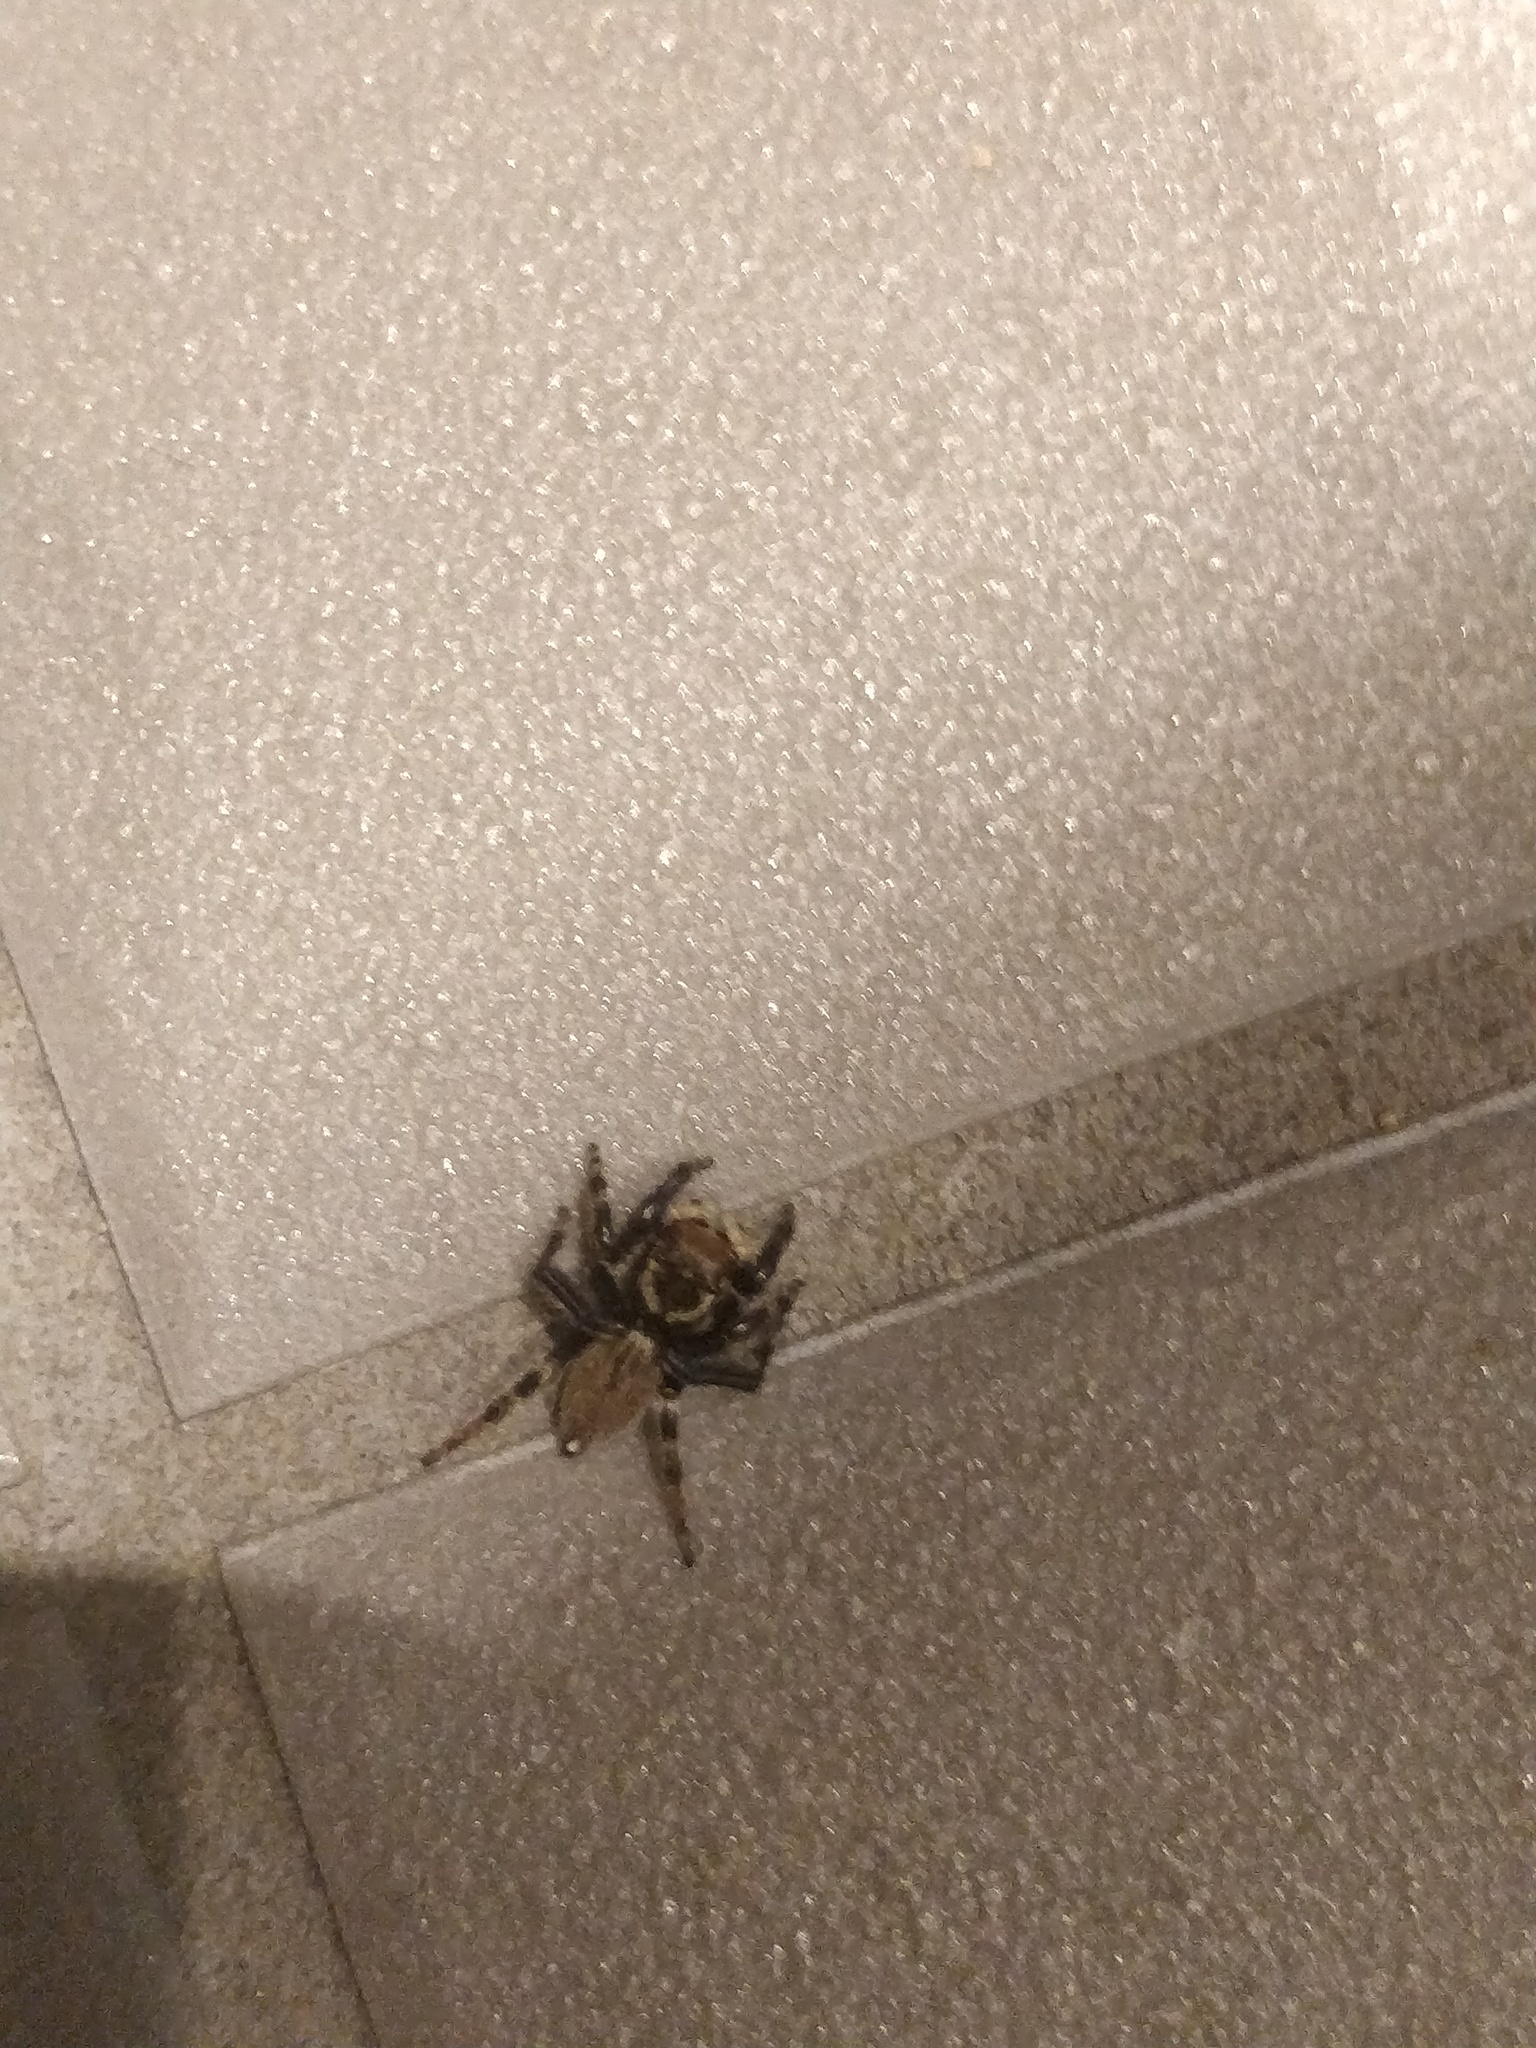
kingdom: Animalia
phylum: Arthropoda
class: Arachnida
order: Araneae
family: Salticidae
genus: Maratus
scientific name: Maratus griseus
